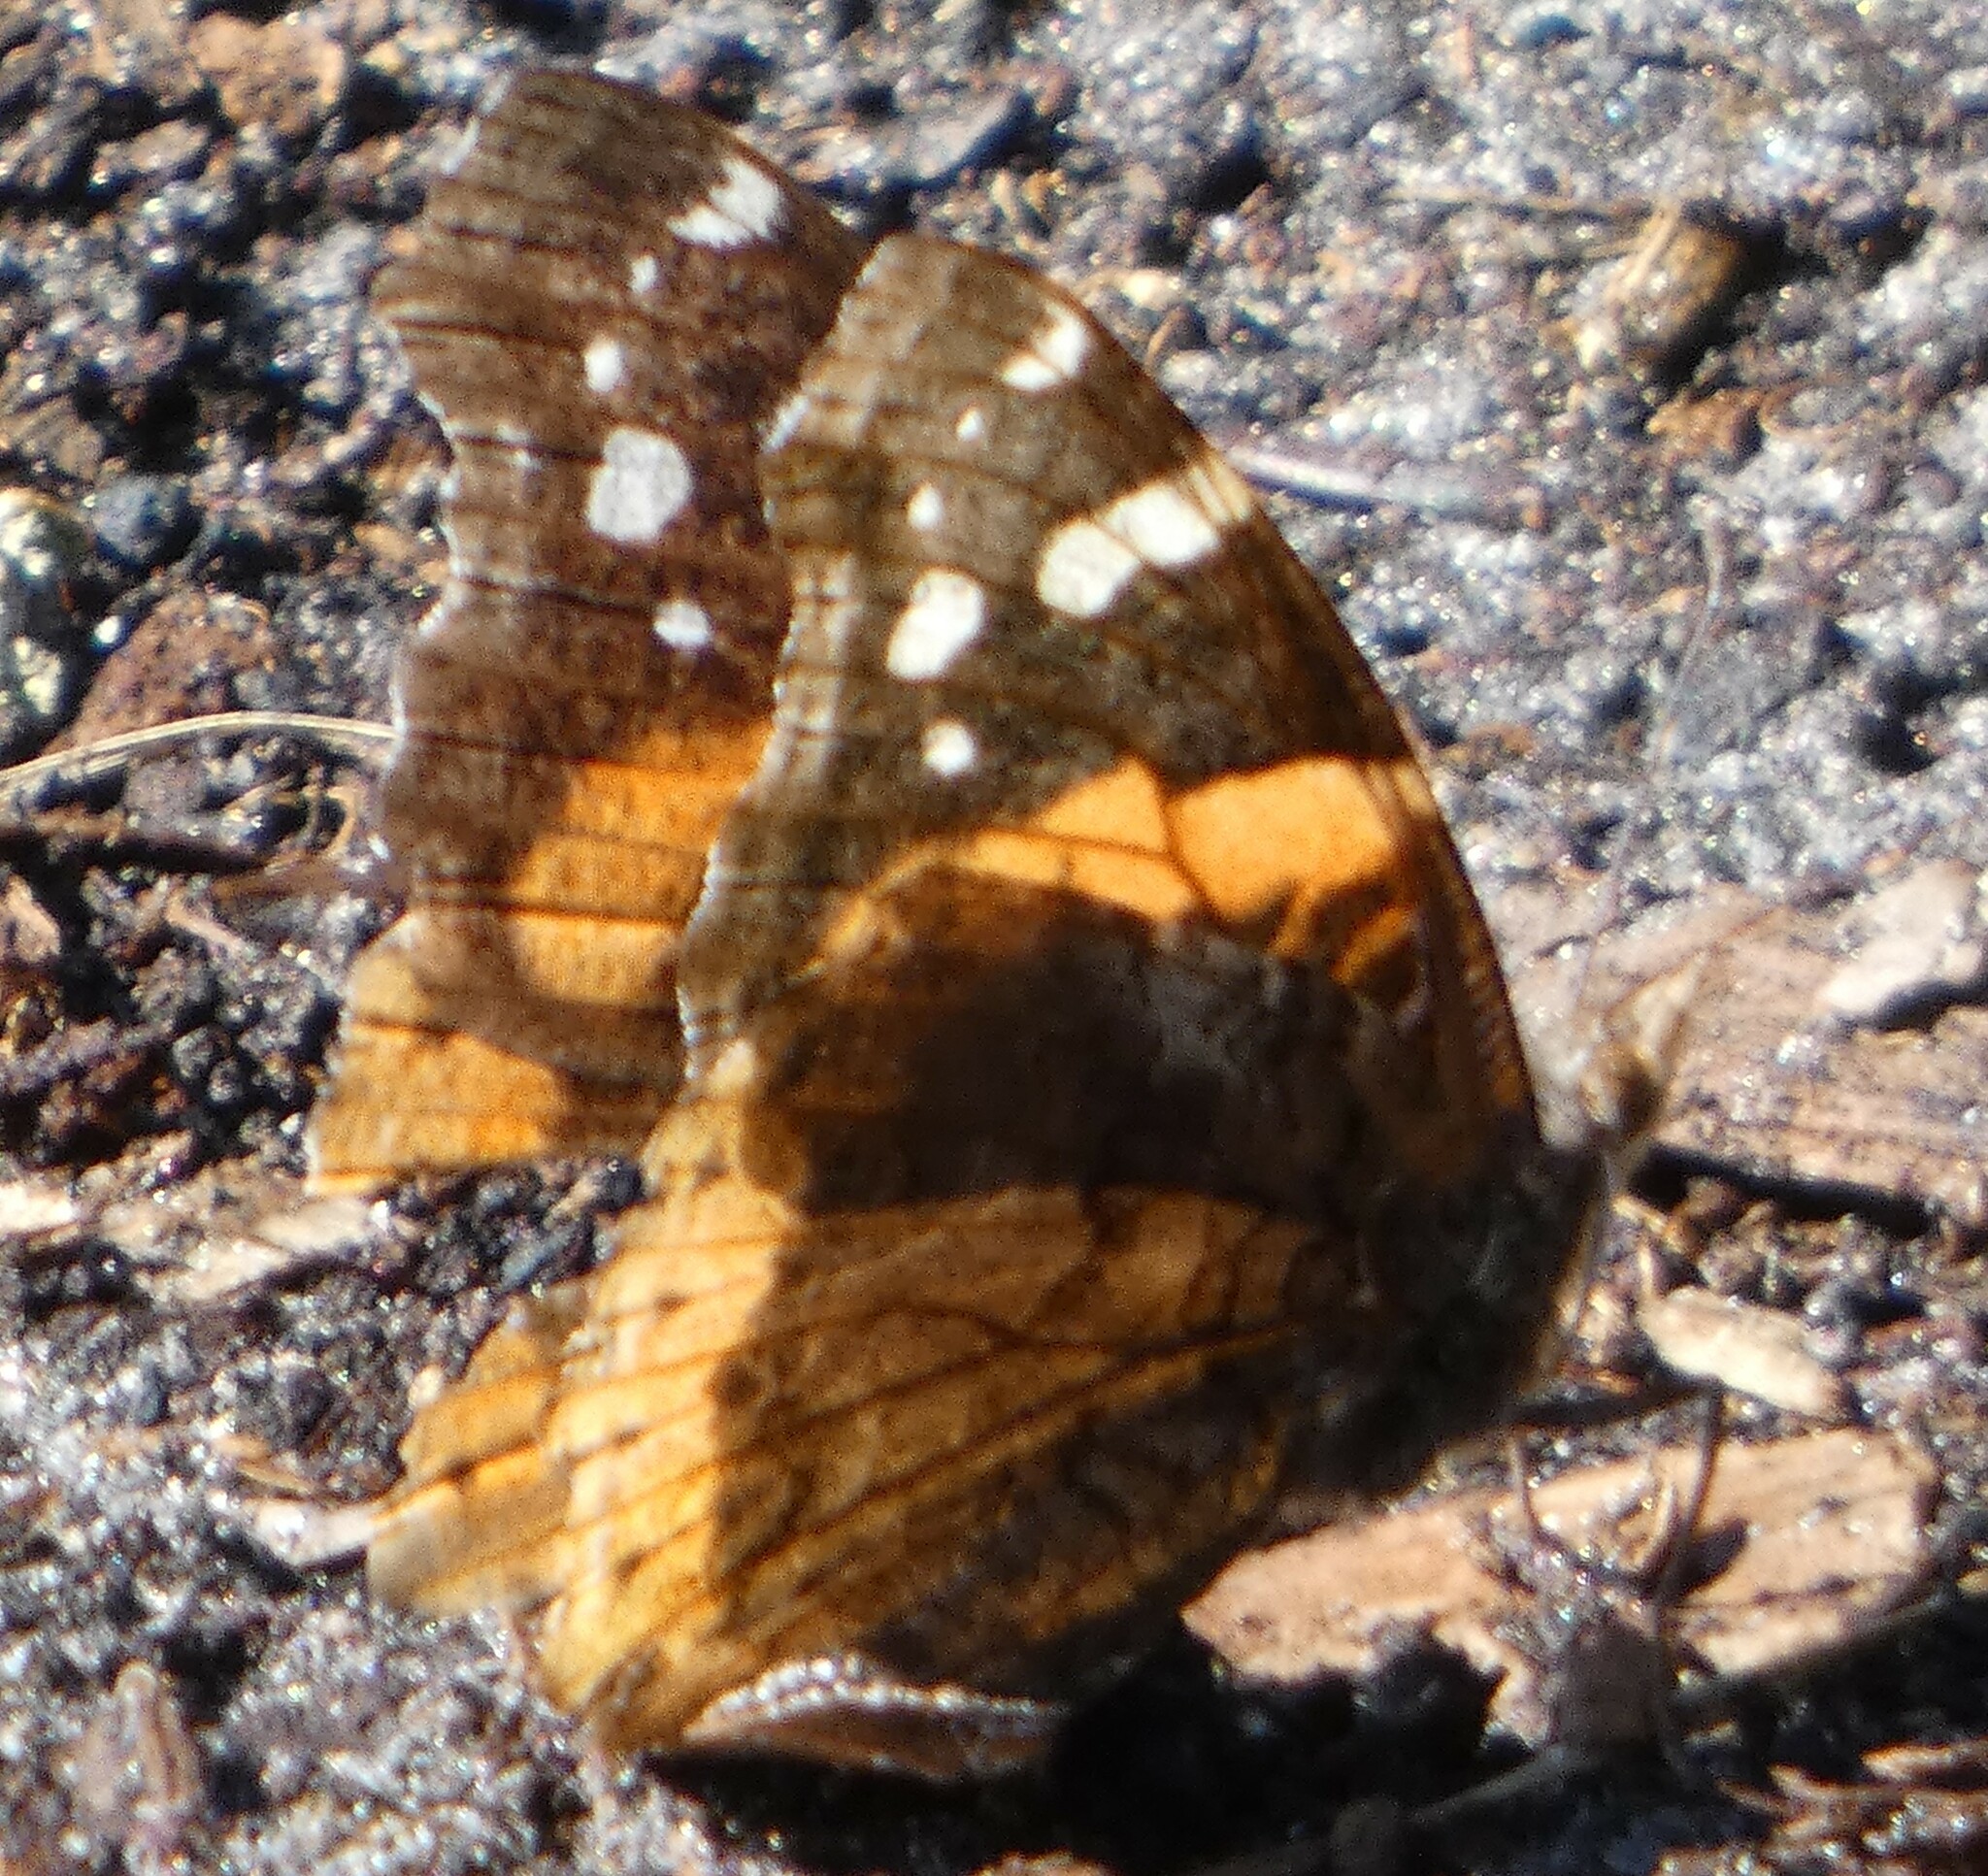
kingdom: Animalia
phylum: Arthropoda
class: Insecta
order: Lepidoptera
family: Nymphalidae
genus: Vanessa
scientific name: Vanessa atalanta
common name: Red admiral
